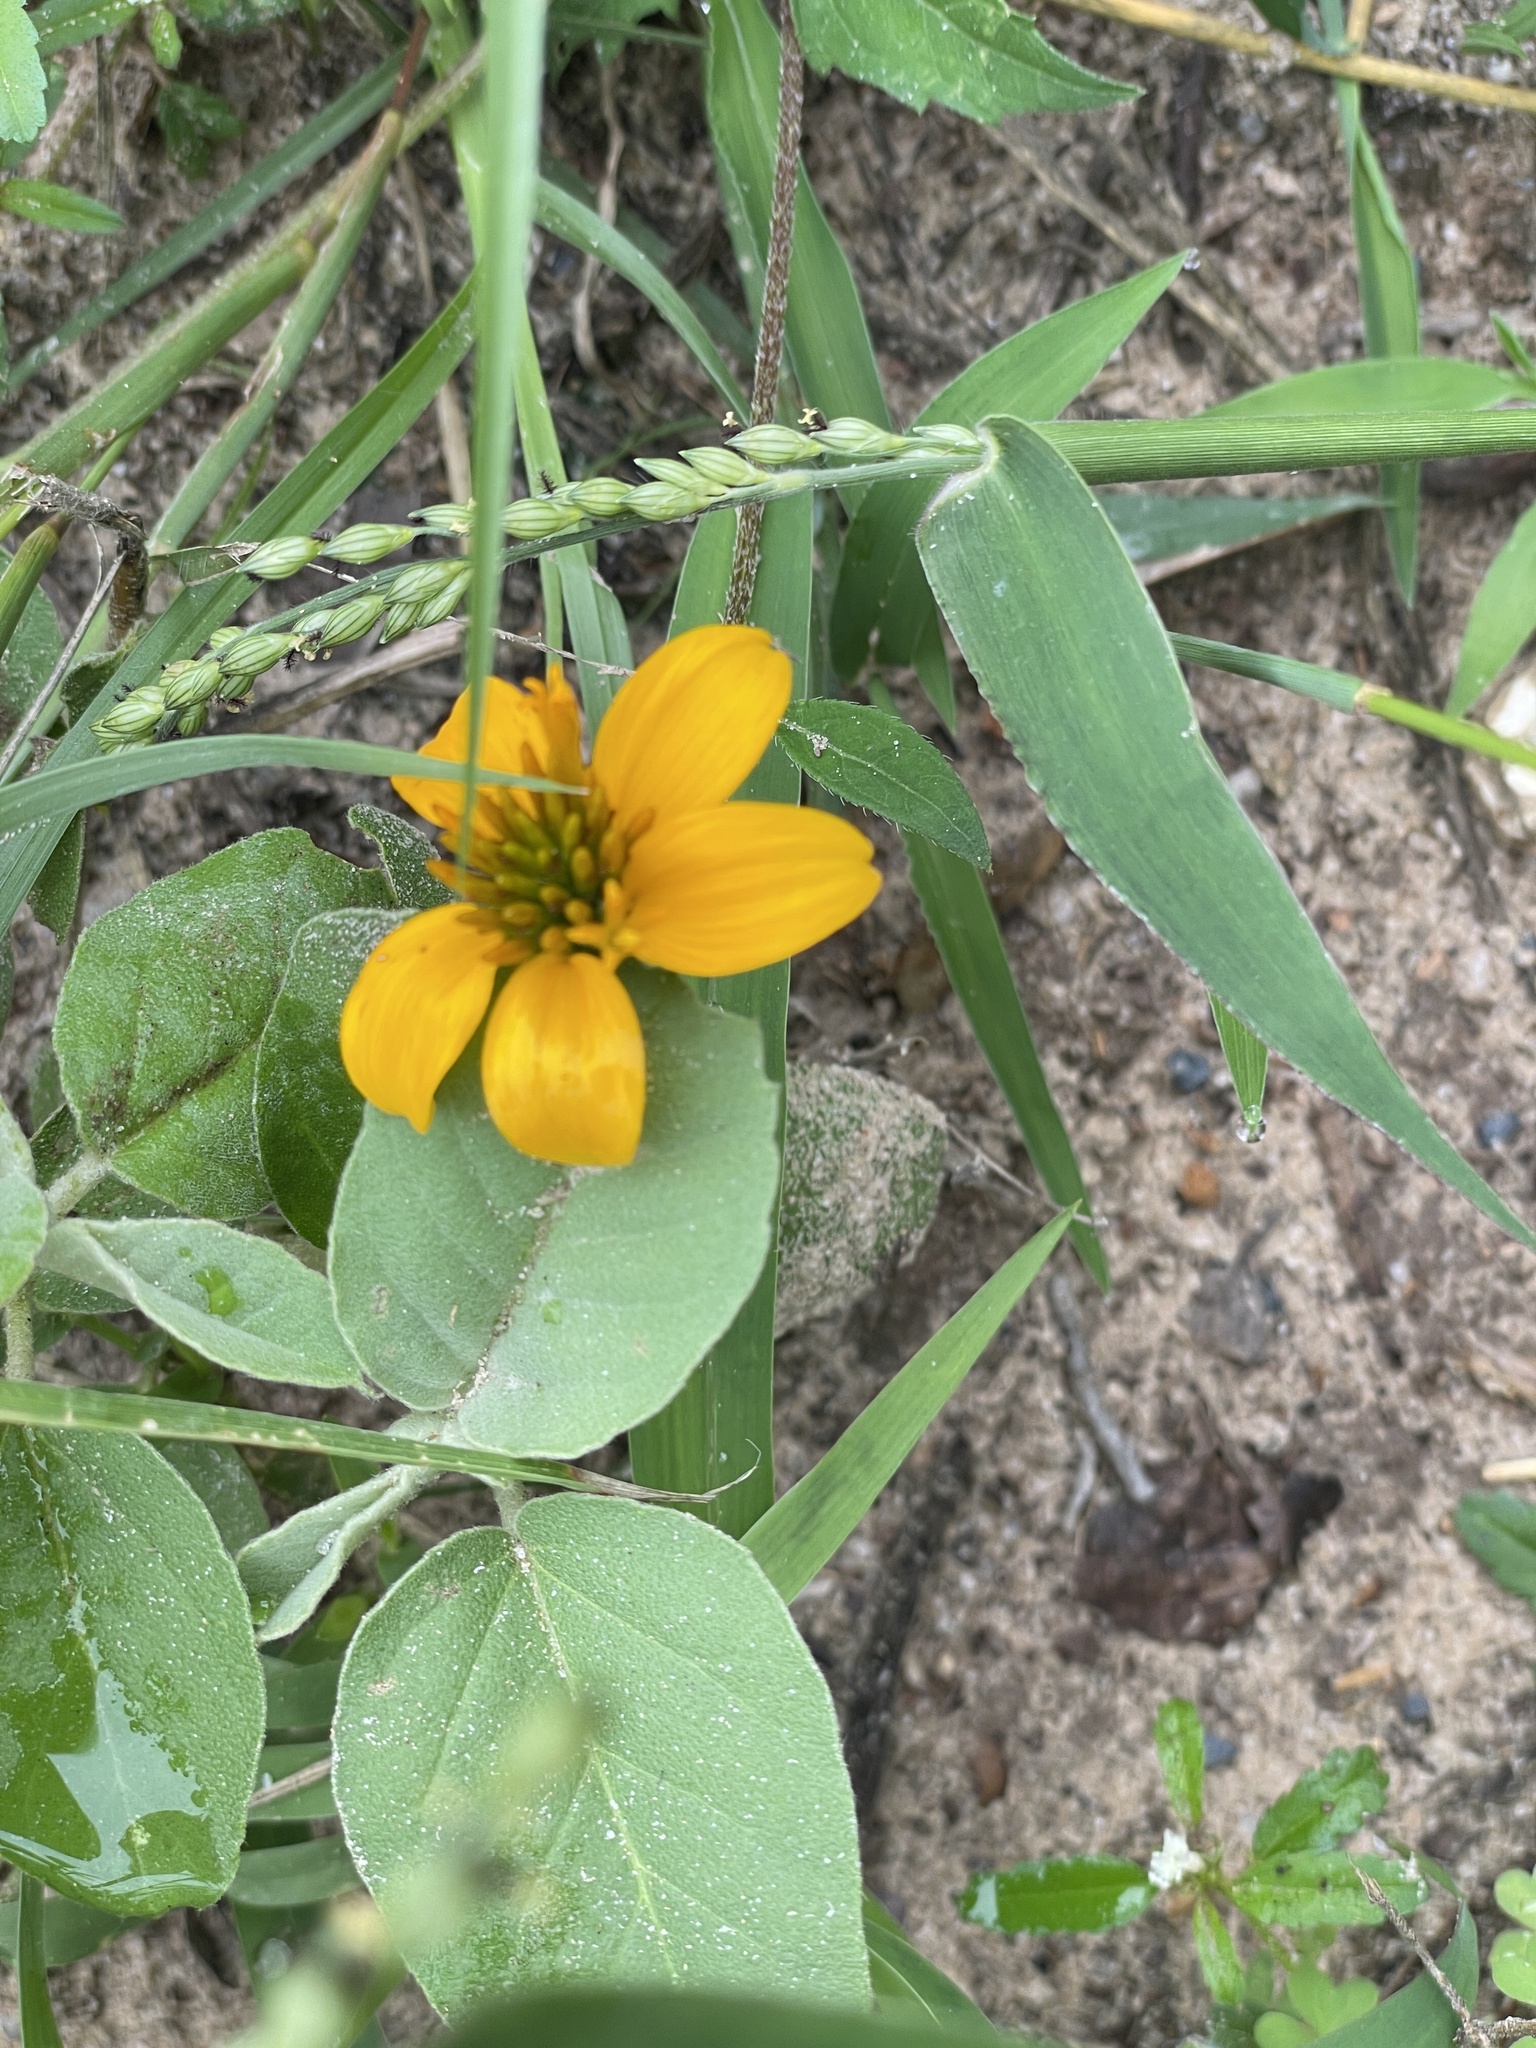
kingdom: Plantae
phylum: Tracheophyta
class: Magnoliopsida
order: Asterales
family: Asteraceae
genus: Sclerocarpus
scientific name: Sclerocarpus uniserialis
